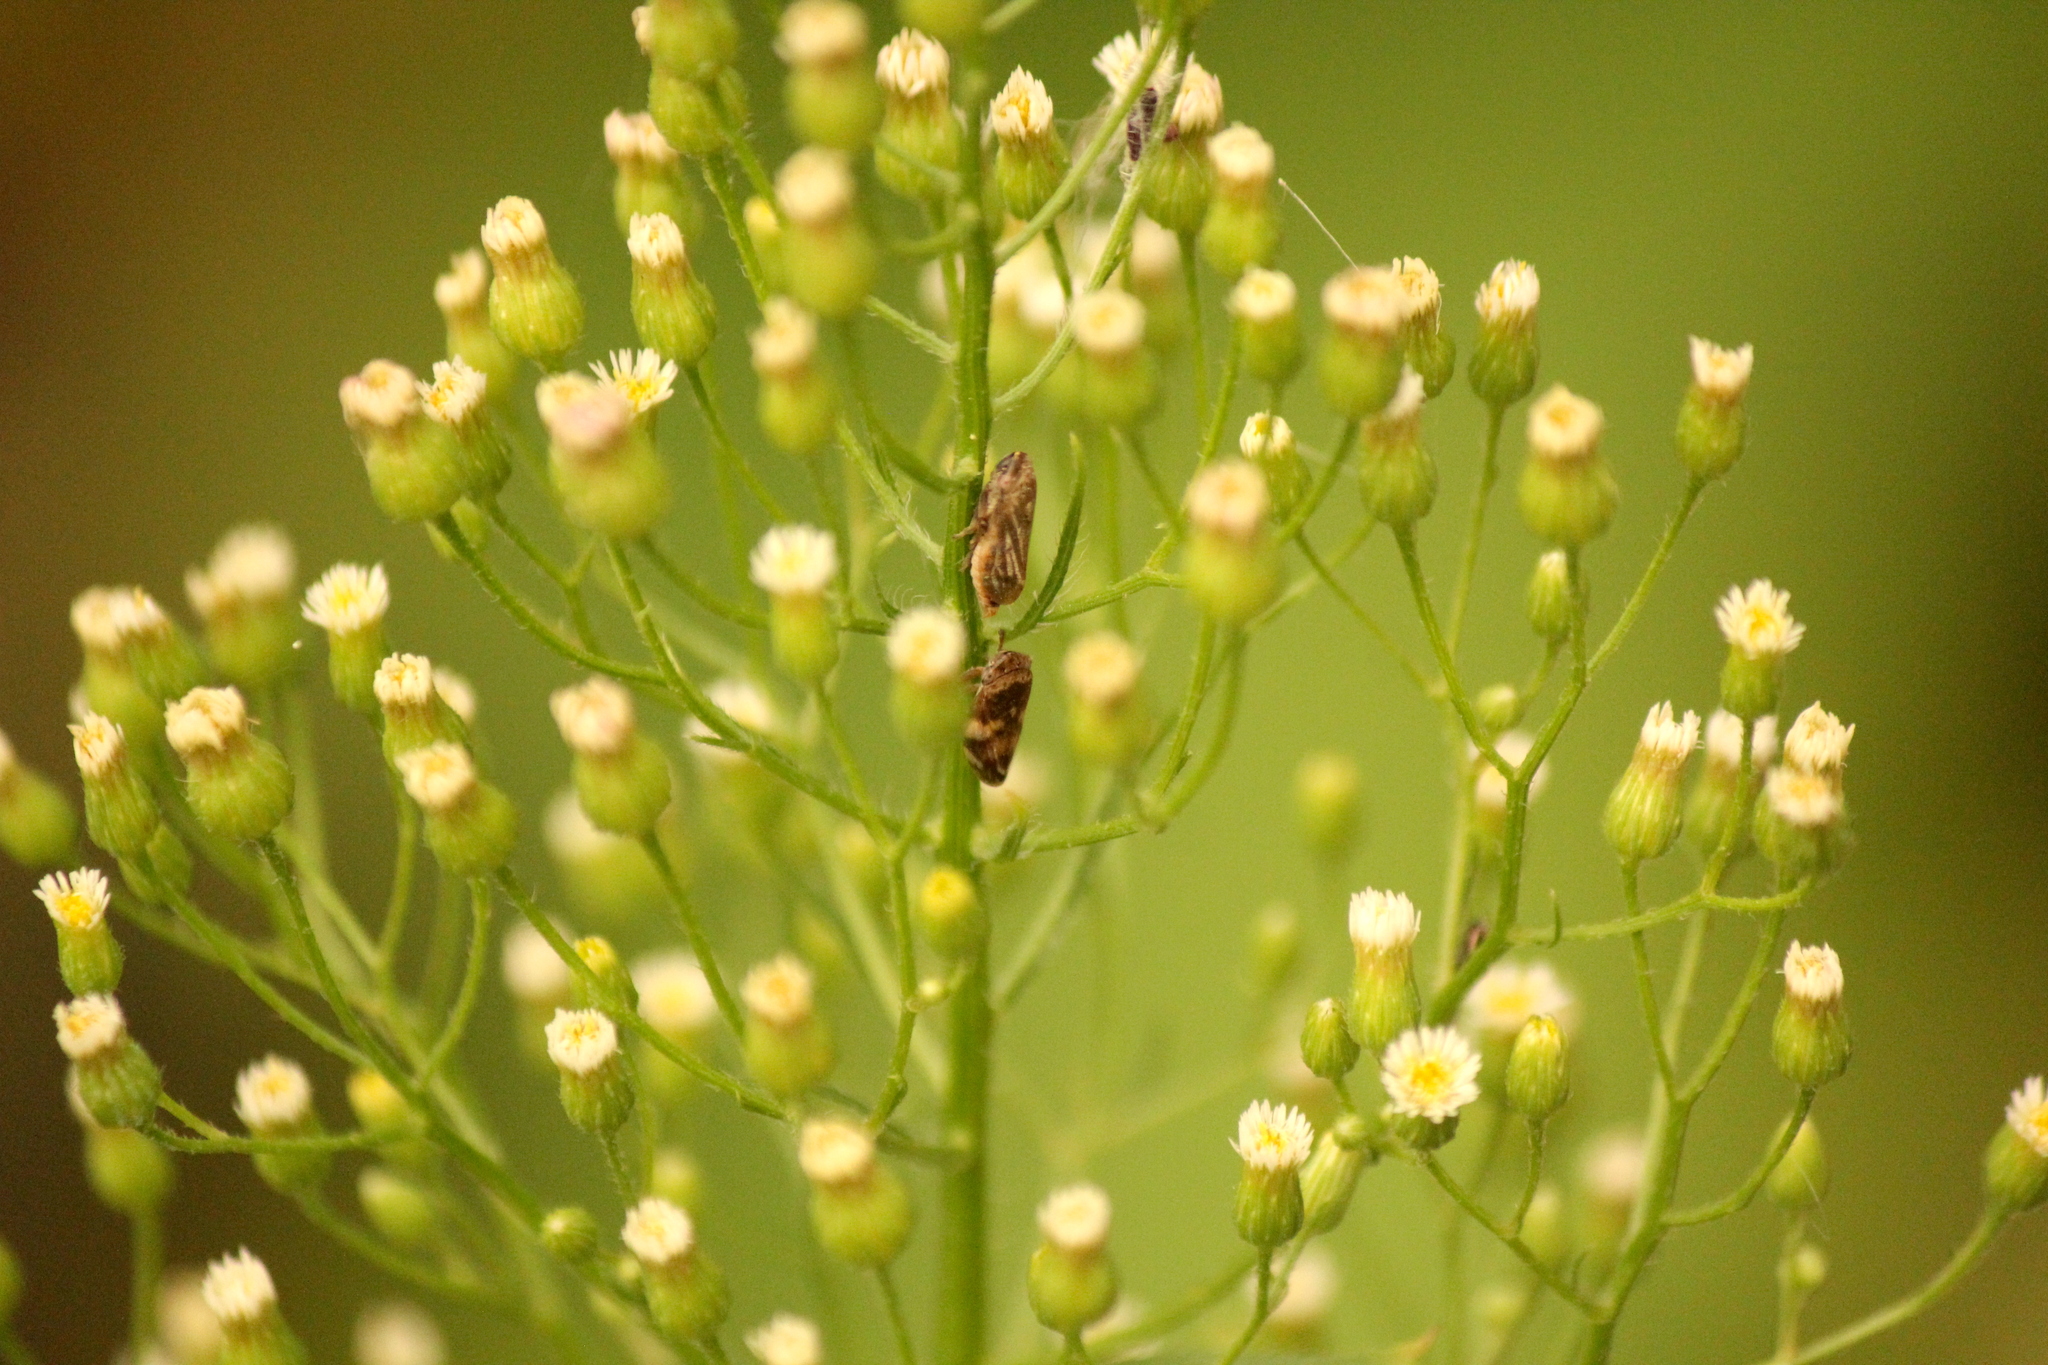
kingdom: Animalia
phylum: Arthropoda
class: Insecta
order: Hemiptera
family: Aphrophoridae
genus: Philaenus
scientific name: Philaenus spumarius
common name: Meadow spittlebug
